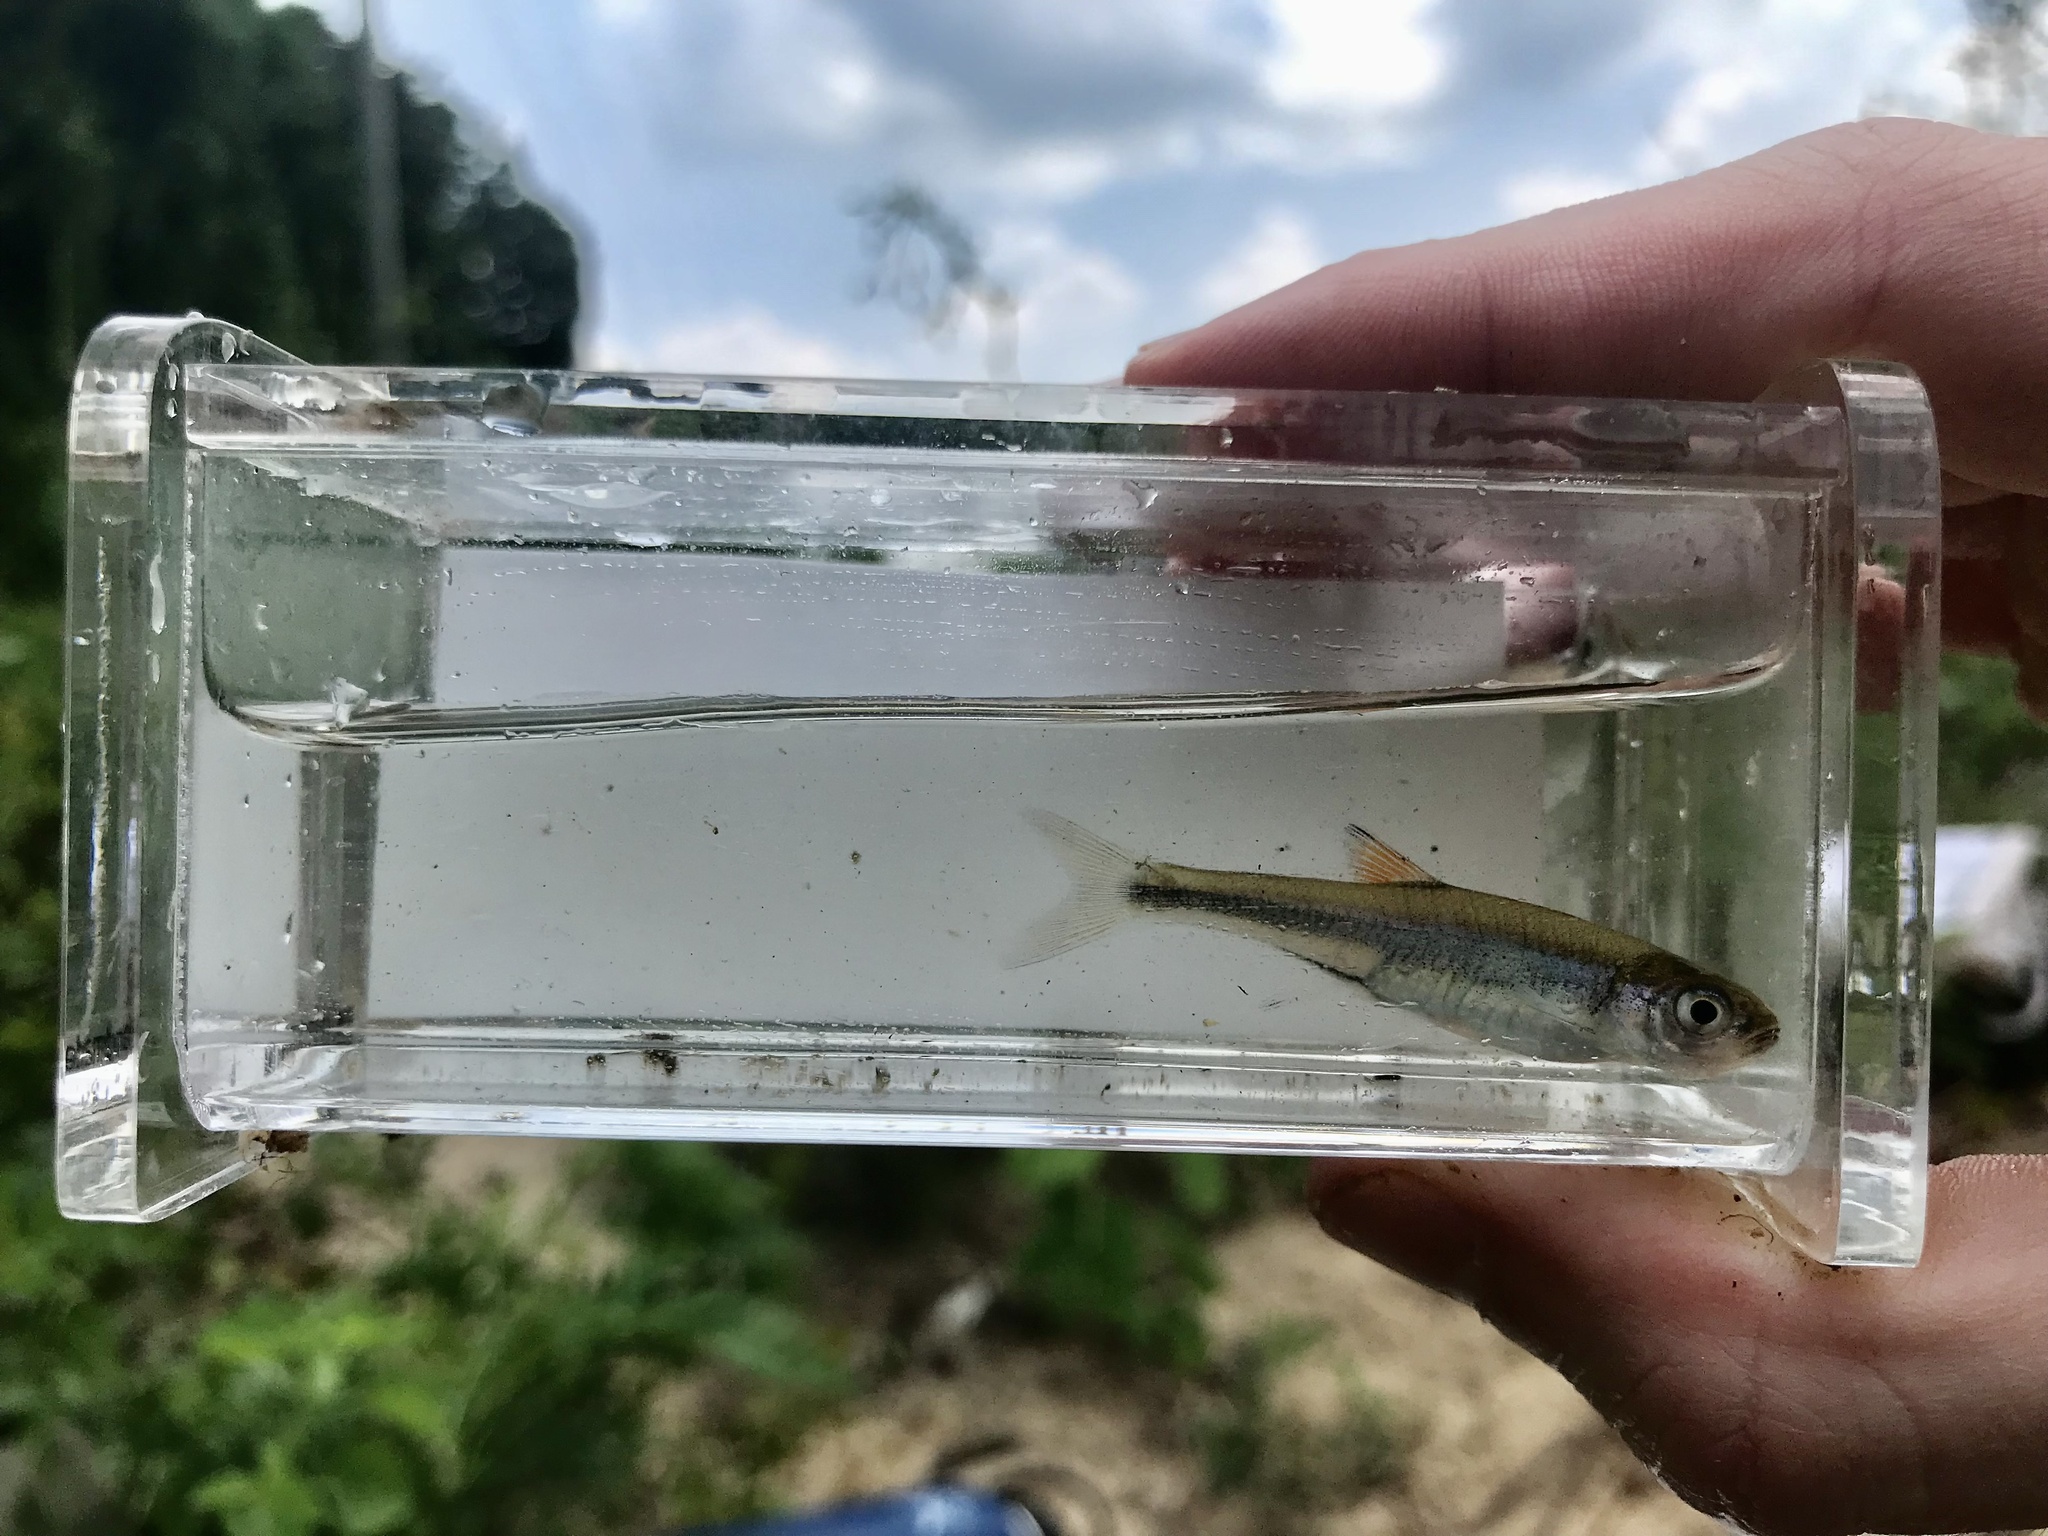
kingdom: Animalia
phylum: Chordata
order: Cypriniformes
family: Cyprinidae
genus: Lythrurus
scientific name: Lythrurus atrapiculus
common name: Blacktip shiner
